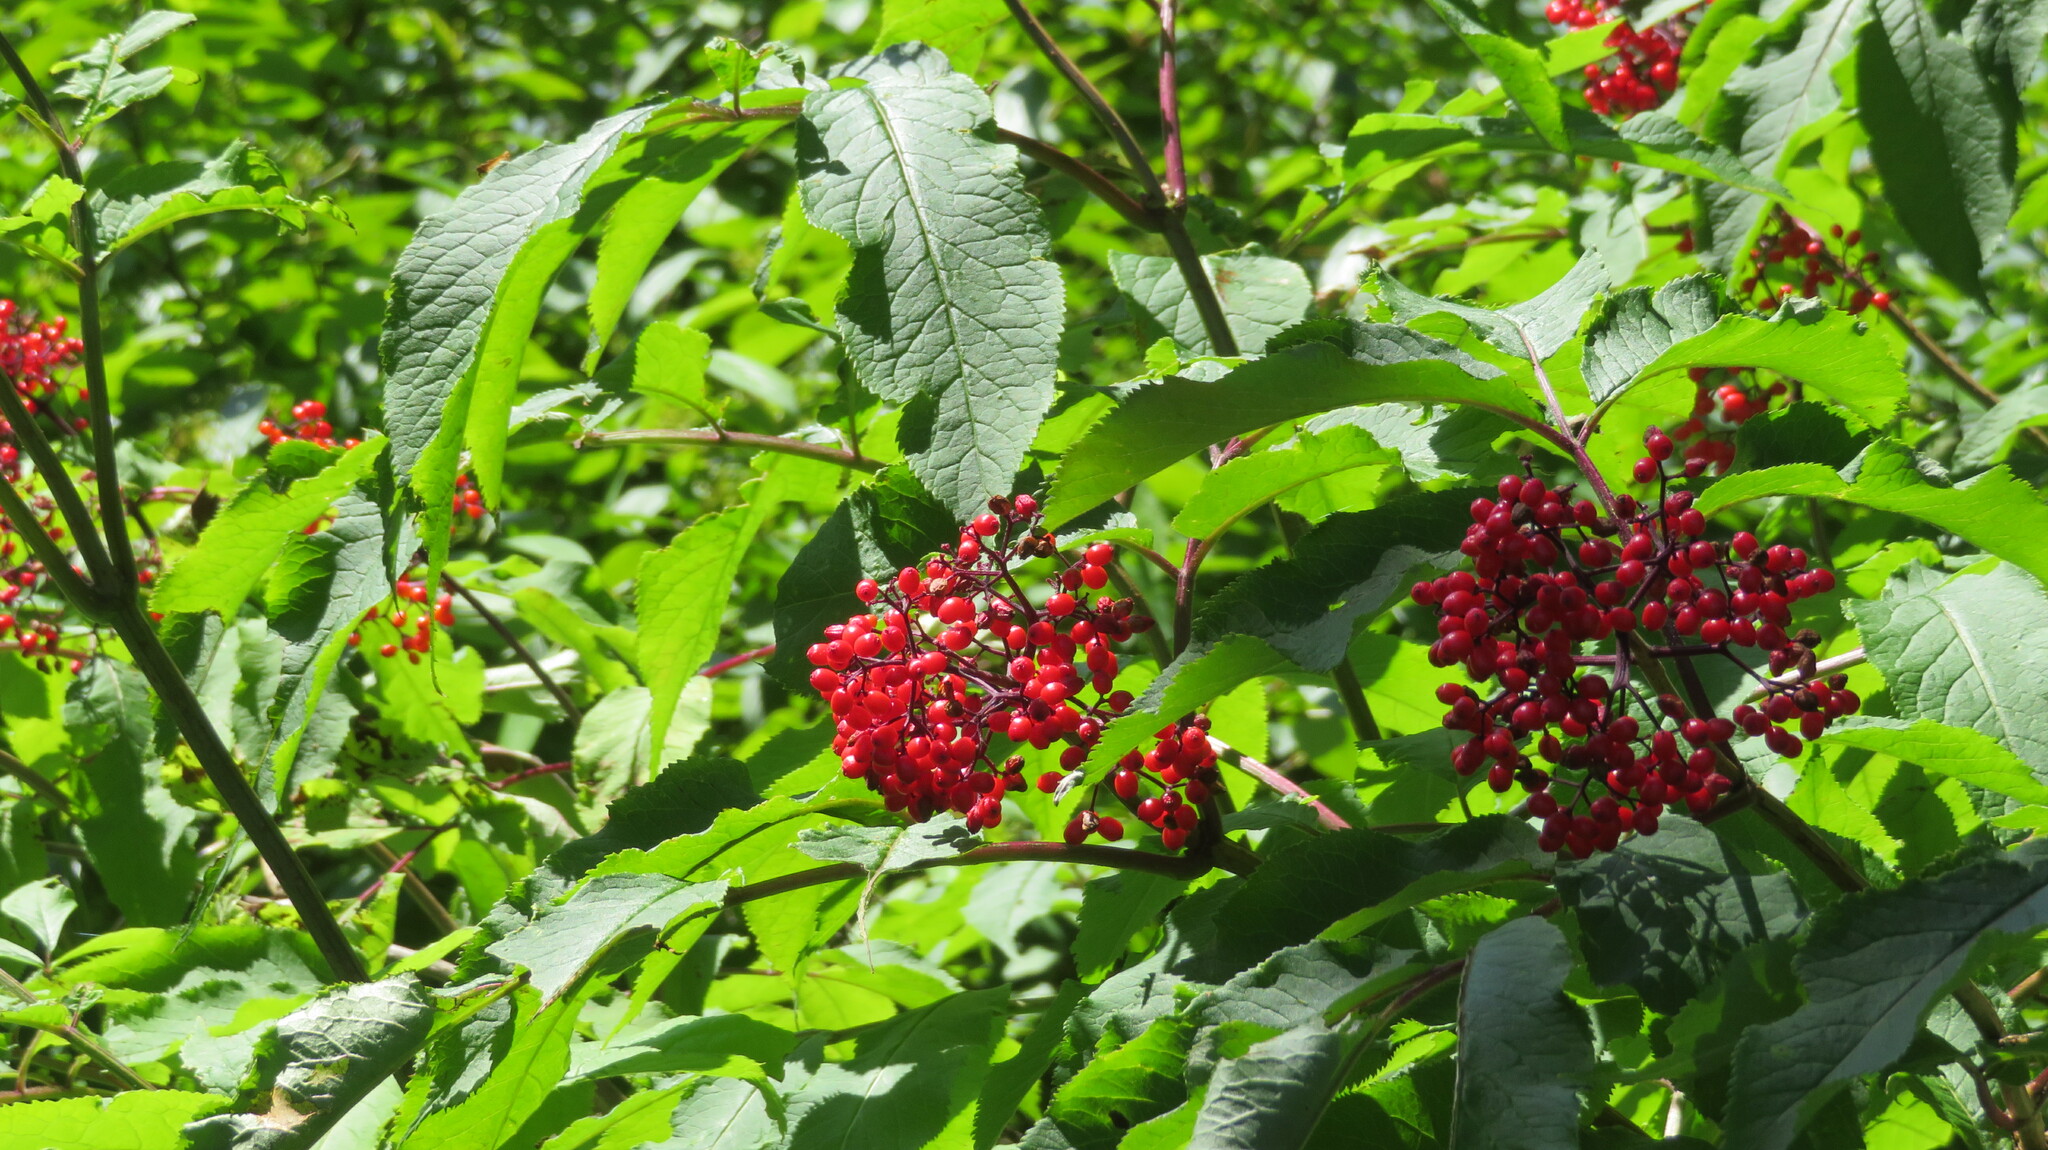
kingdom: Plantae
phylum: Tracheophyta
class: Magnoliopsida
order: Dipsacales
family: Viburnaceae
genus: Sambucus
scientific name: Sambucus racemosa
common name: Red-berried elder
